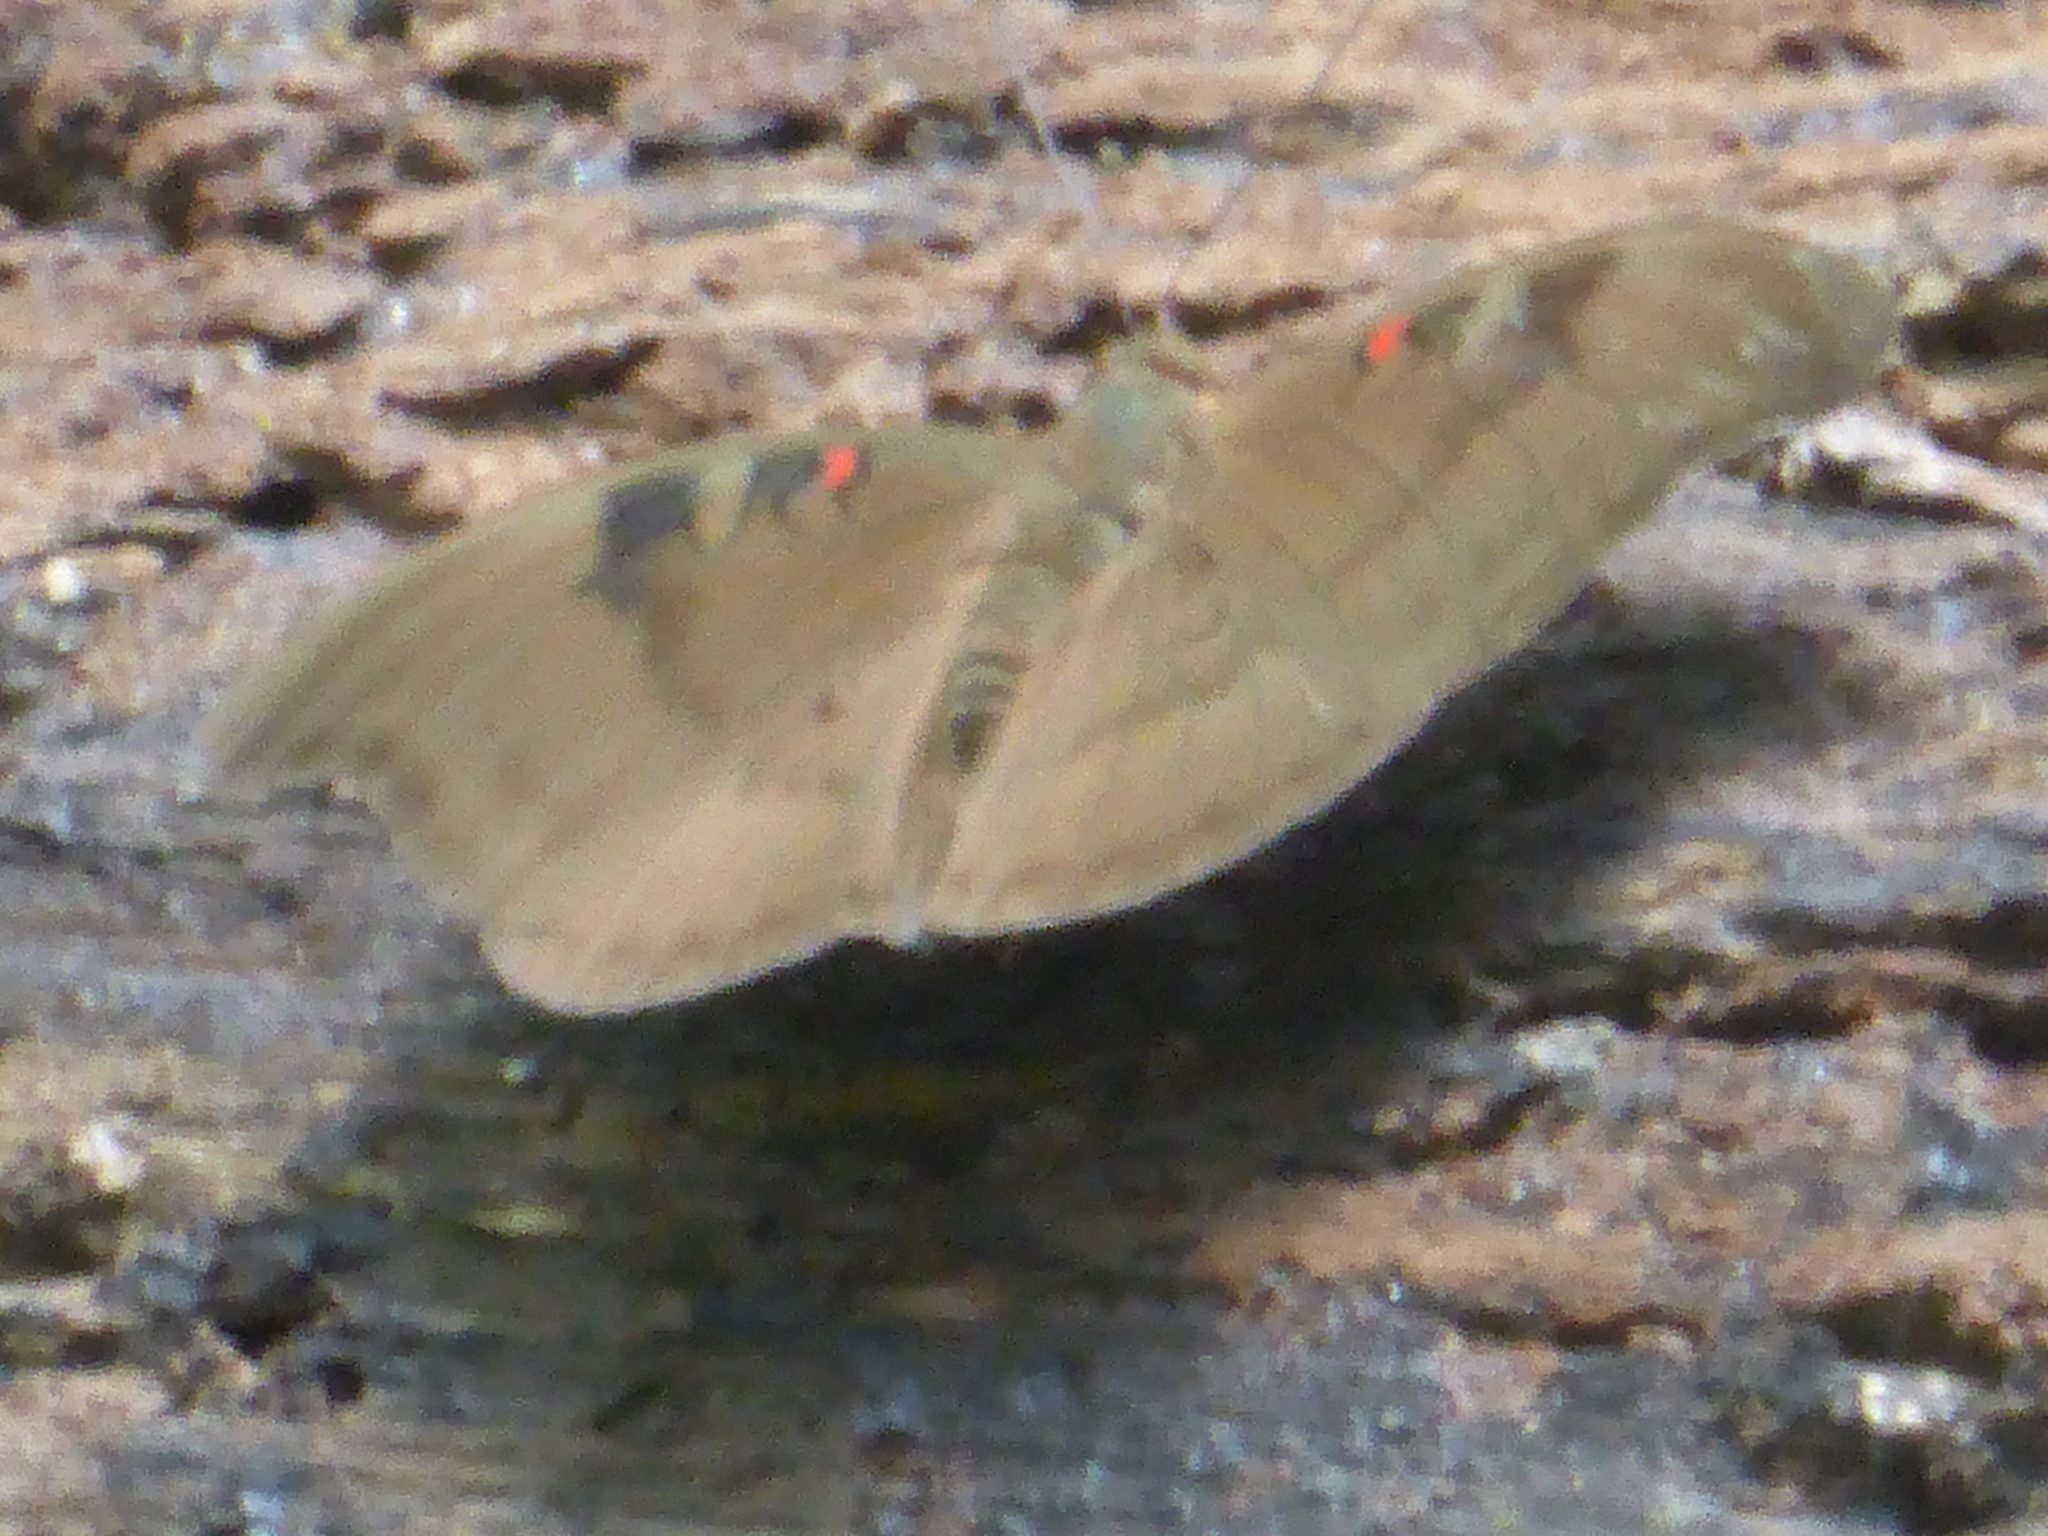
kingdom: Animalia
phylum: Arthropoda
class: Insecta
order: Lepidoptera
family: Nymphalidae
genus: Euthalia
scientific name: Euthalia Dophla evelina
